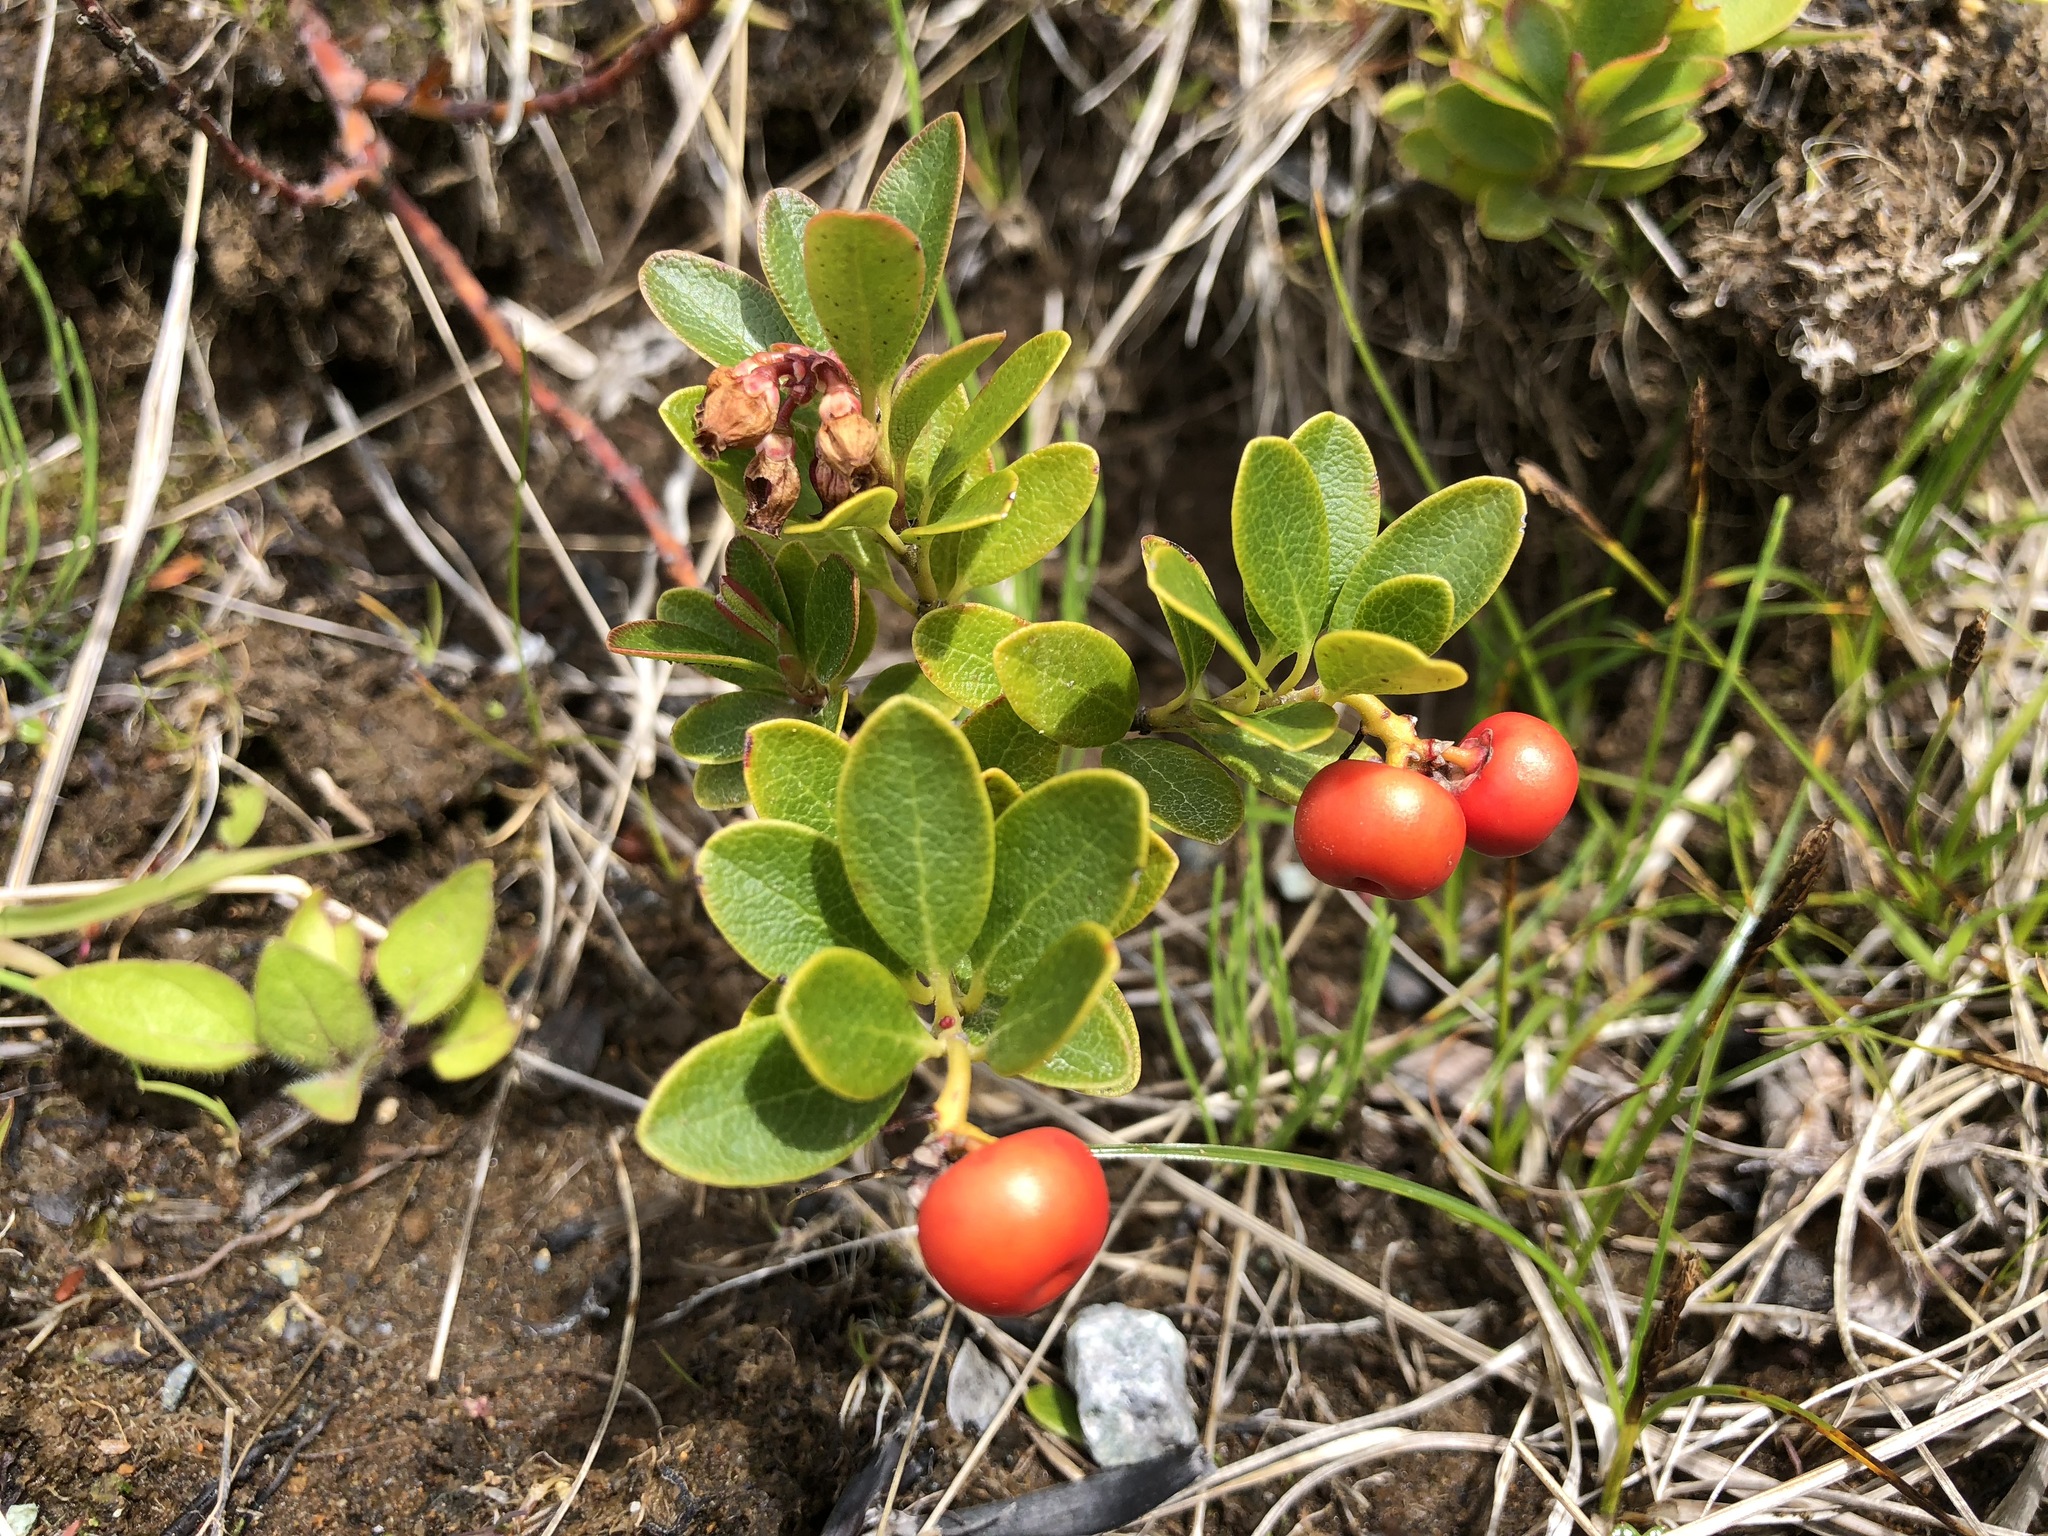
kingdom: Plantae
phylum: Tracheophyta
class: Magnoliopsida
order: Ericales
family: Ericaceae
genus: Arctostaphylos
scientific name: Arctostaphylos uva-ursi
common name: Bearberry
